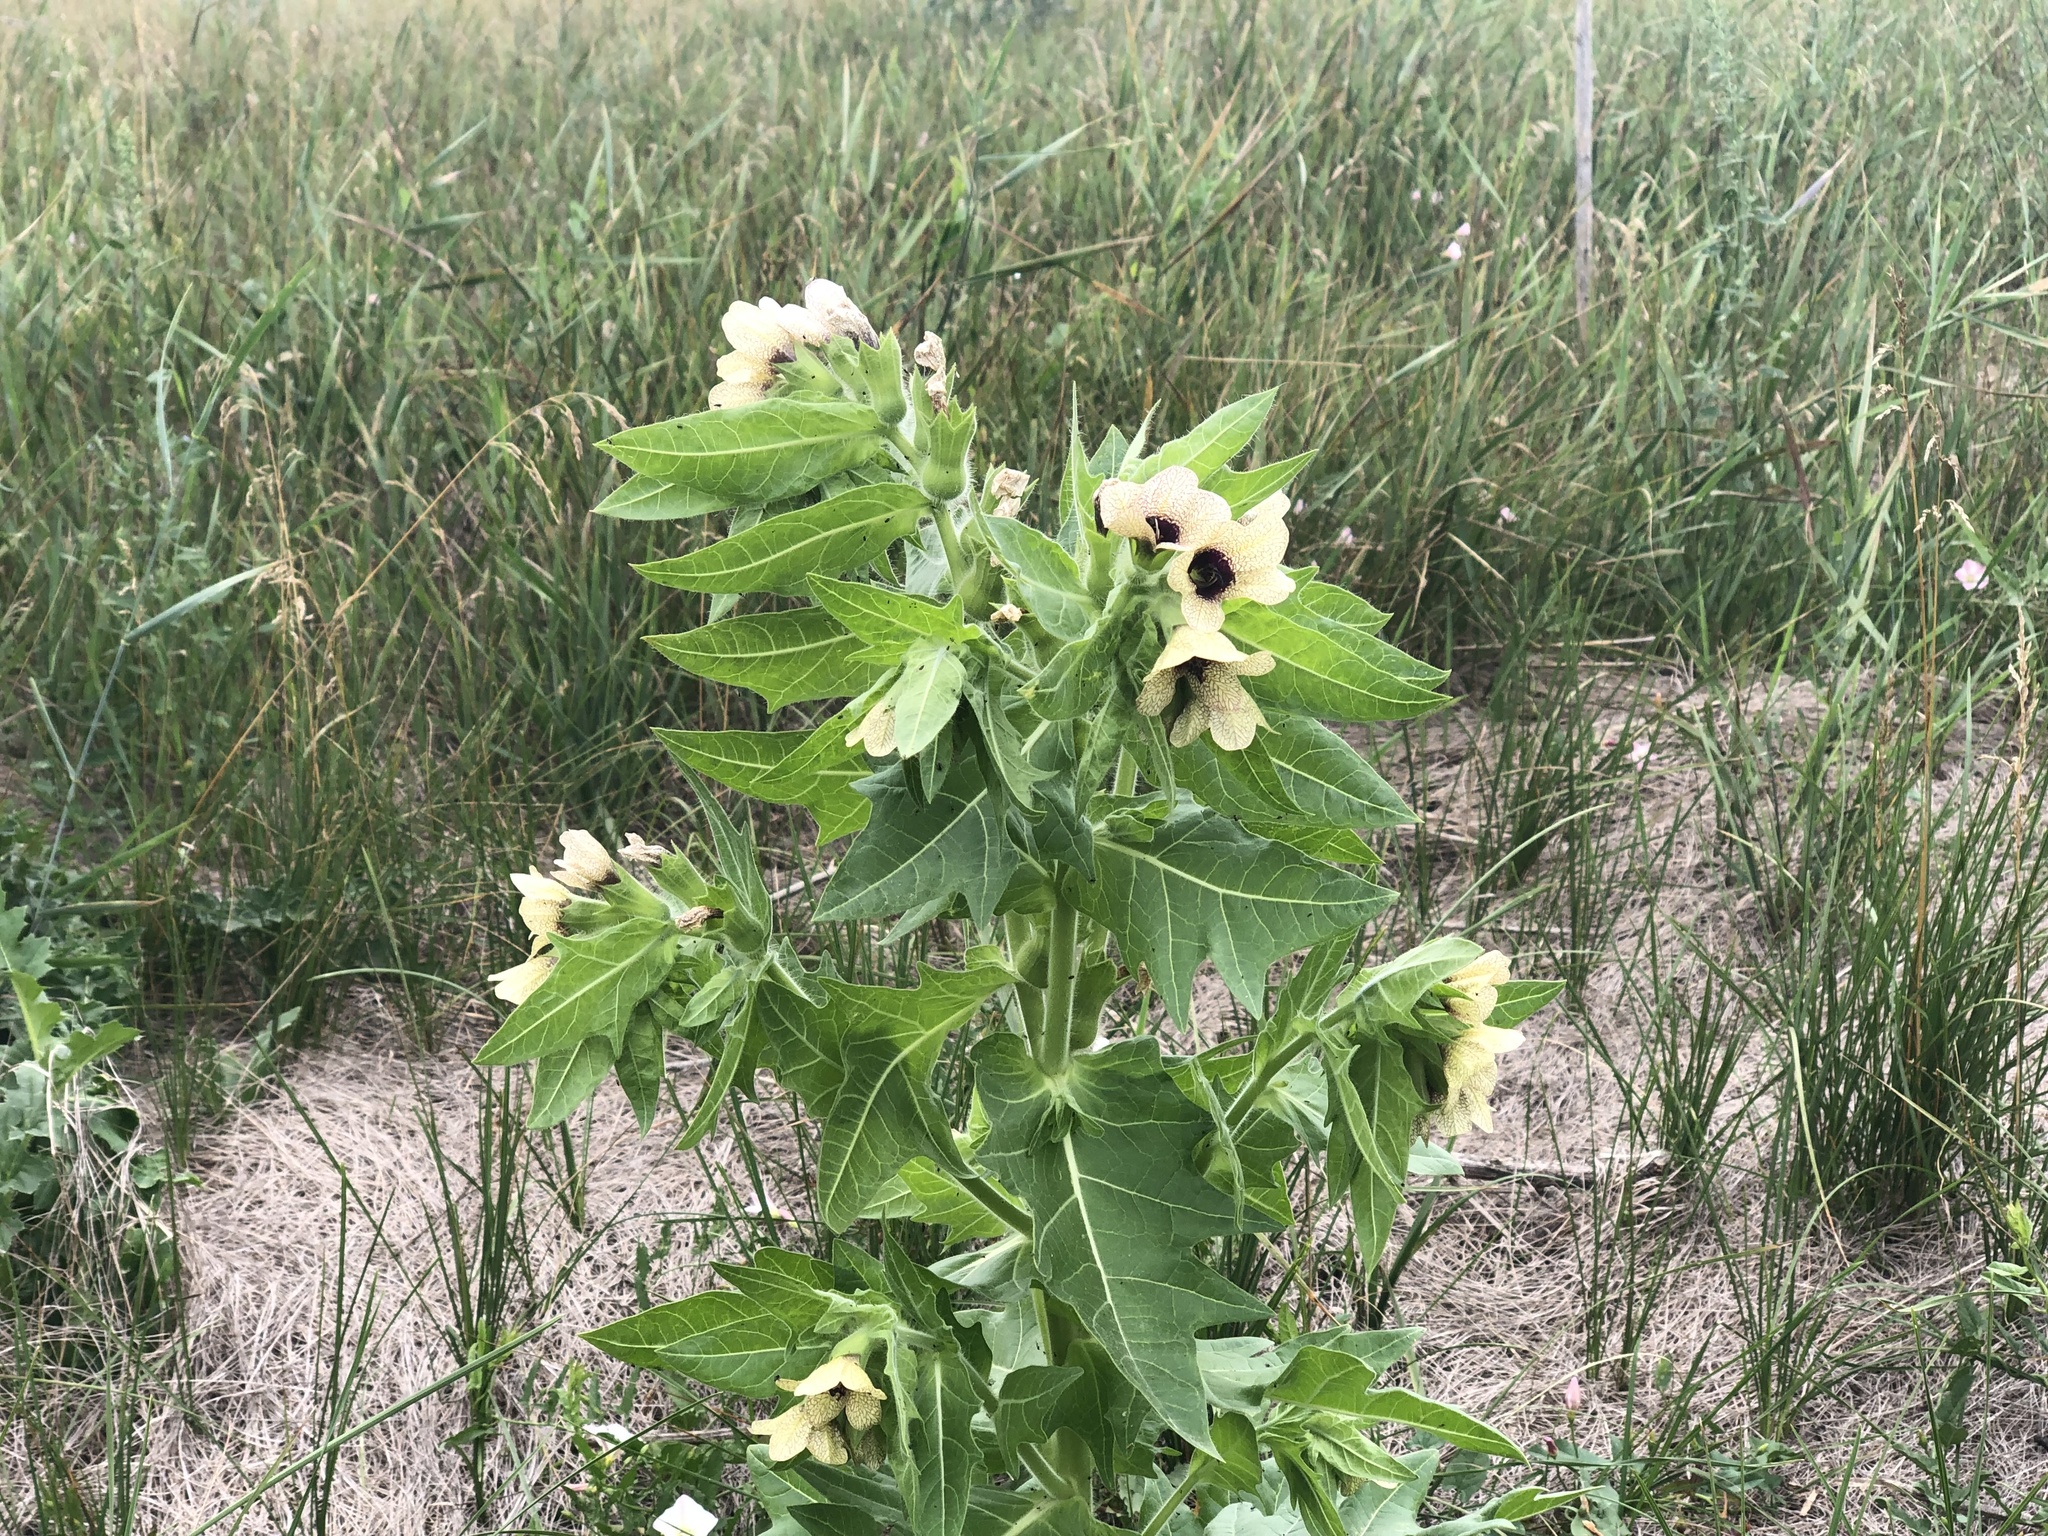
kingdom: Plantae
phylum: Tracheophyta
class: Magnoliopsida
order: Solanales
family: Solanaceae
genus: Hyoscyamus
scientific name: Hyoscyamus niger
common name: Henbane
